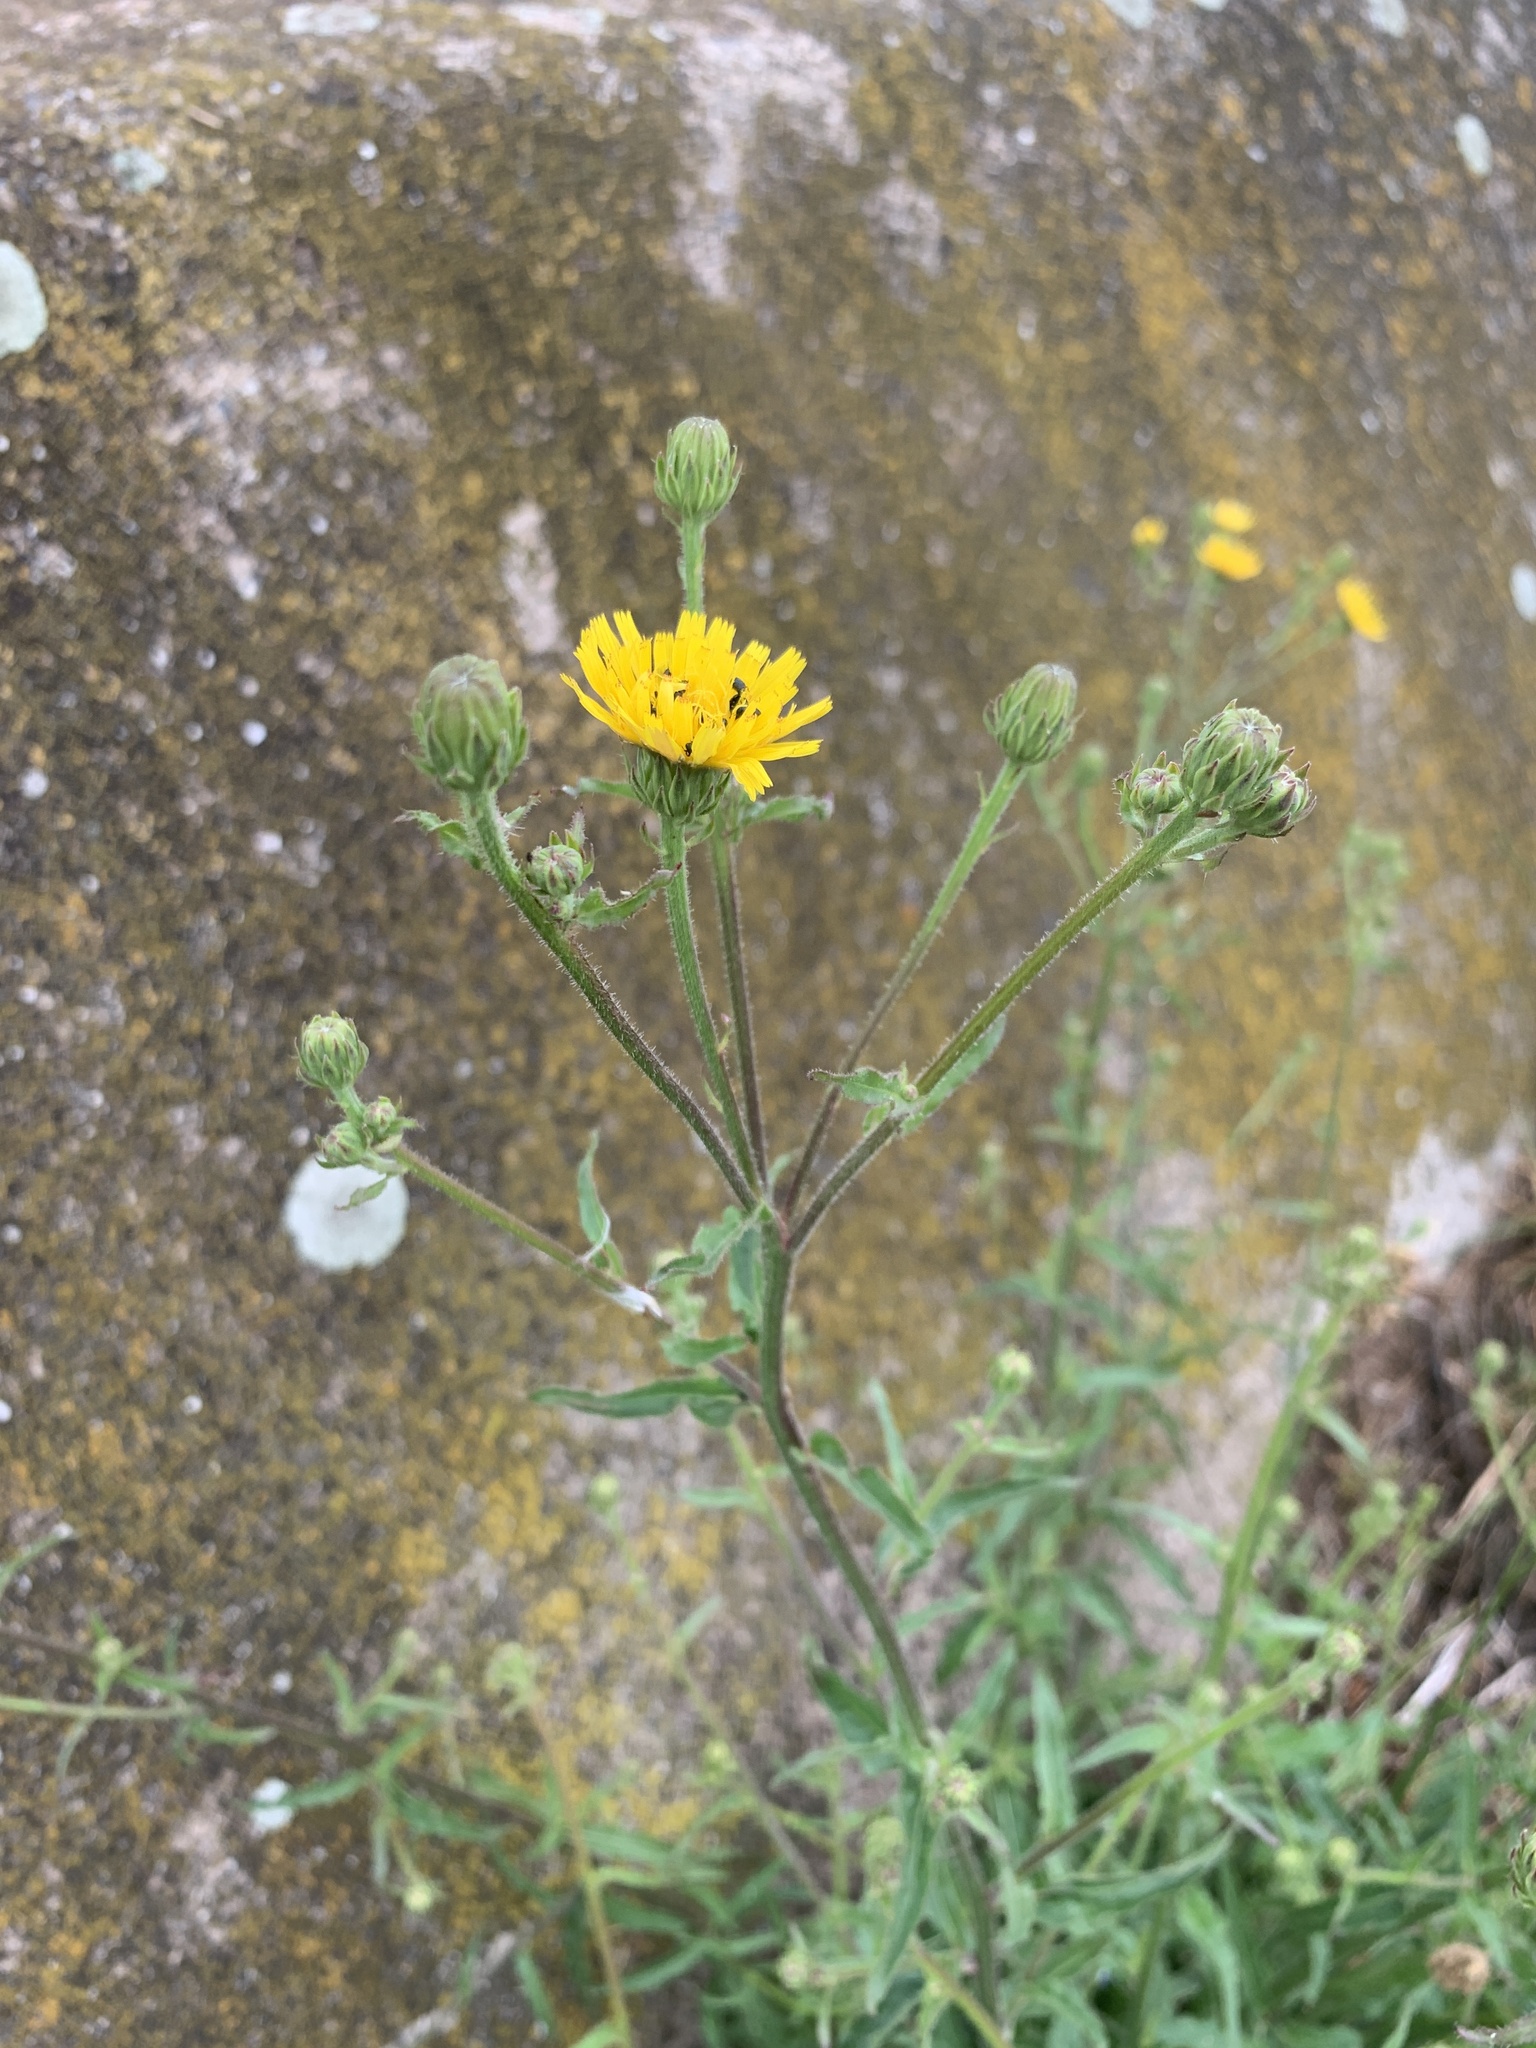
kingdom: Plantae
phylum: Tracheophyta
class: Magnoliopsida
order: Asterales
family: Asteraceae
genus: Picris
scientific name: Picris hieracioides
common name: Hawkweed oxtongue
